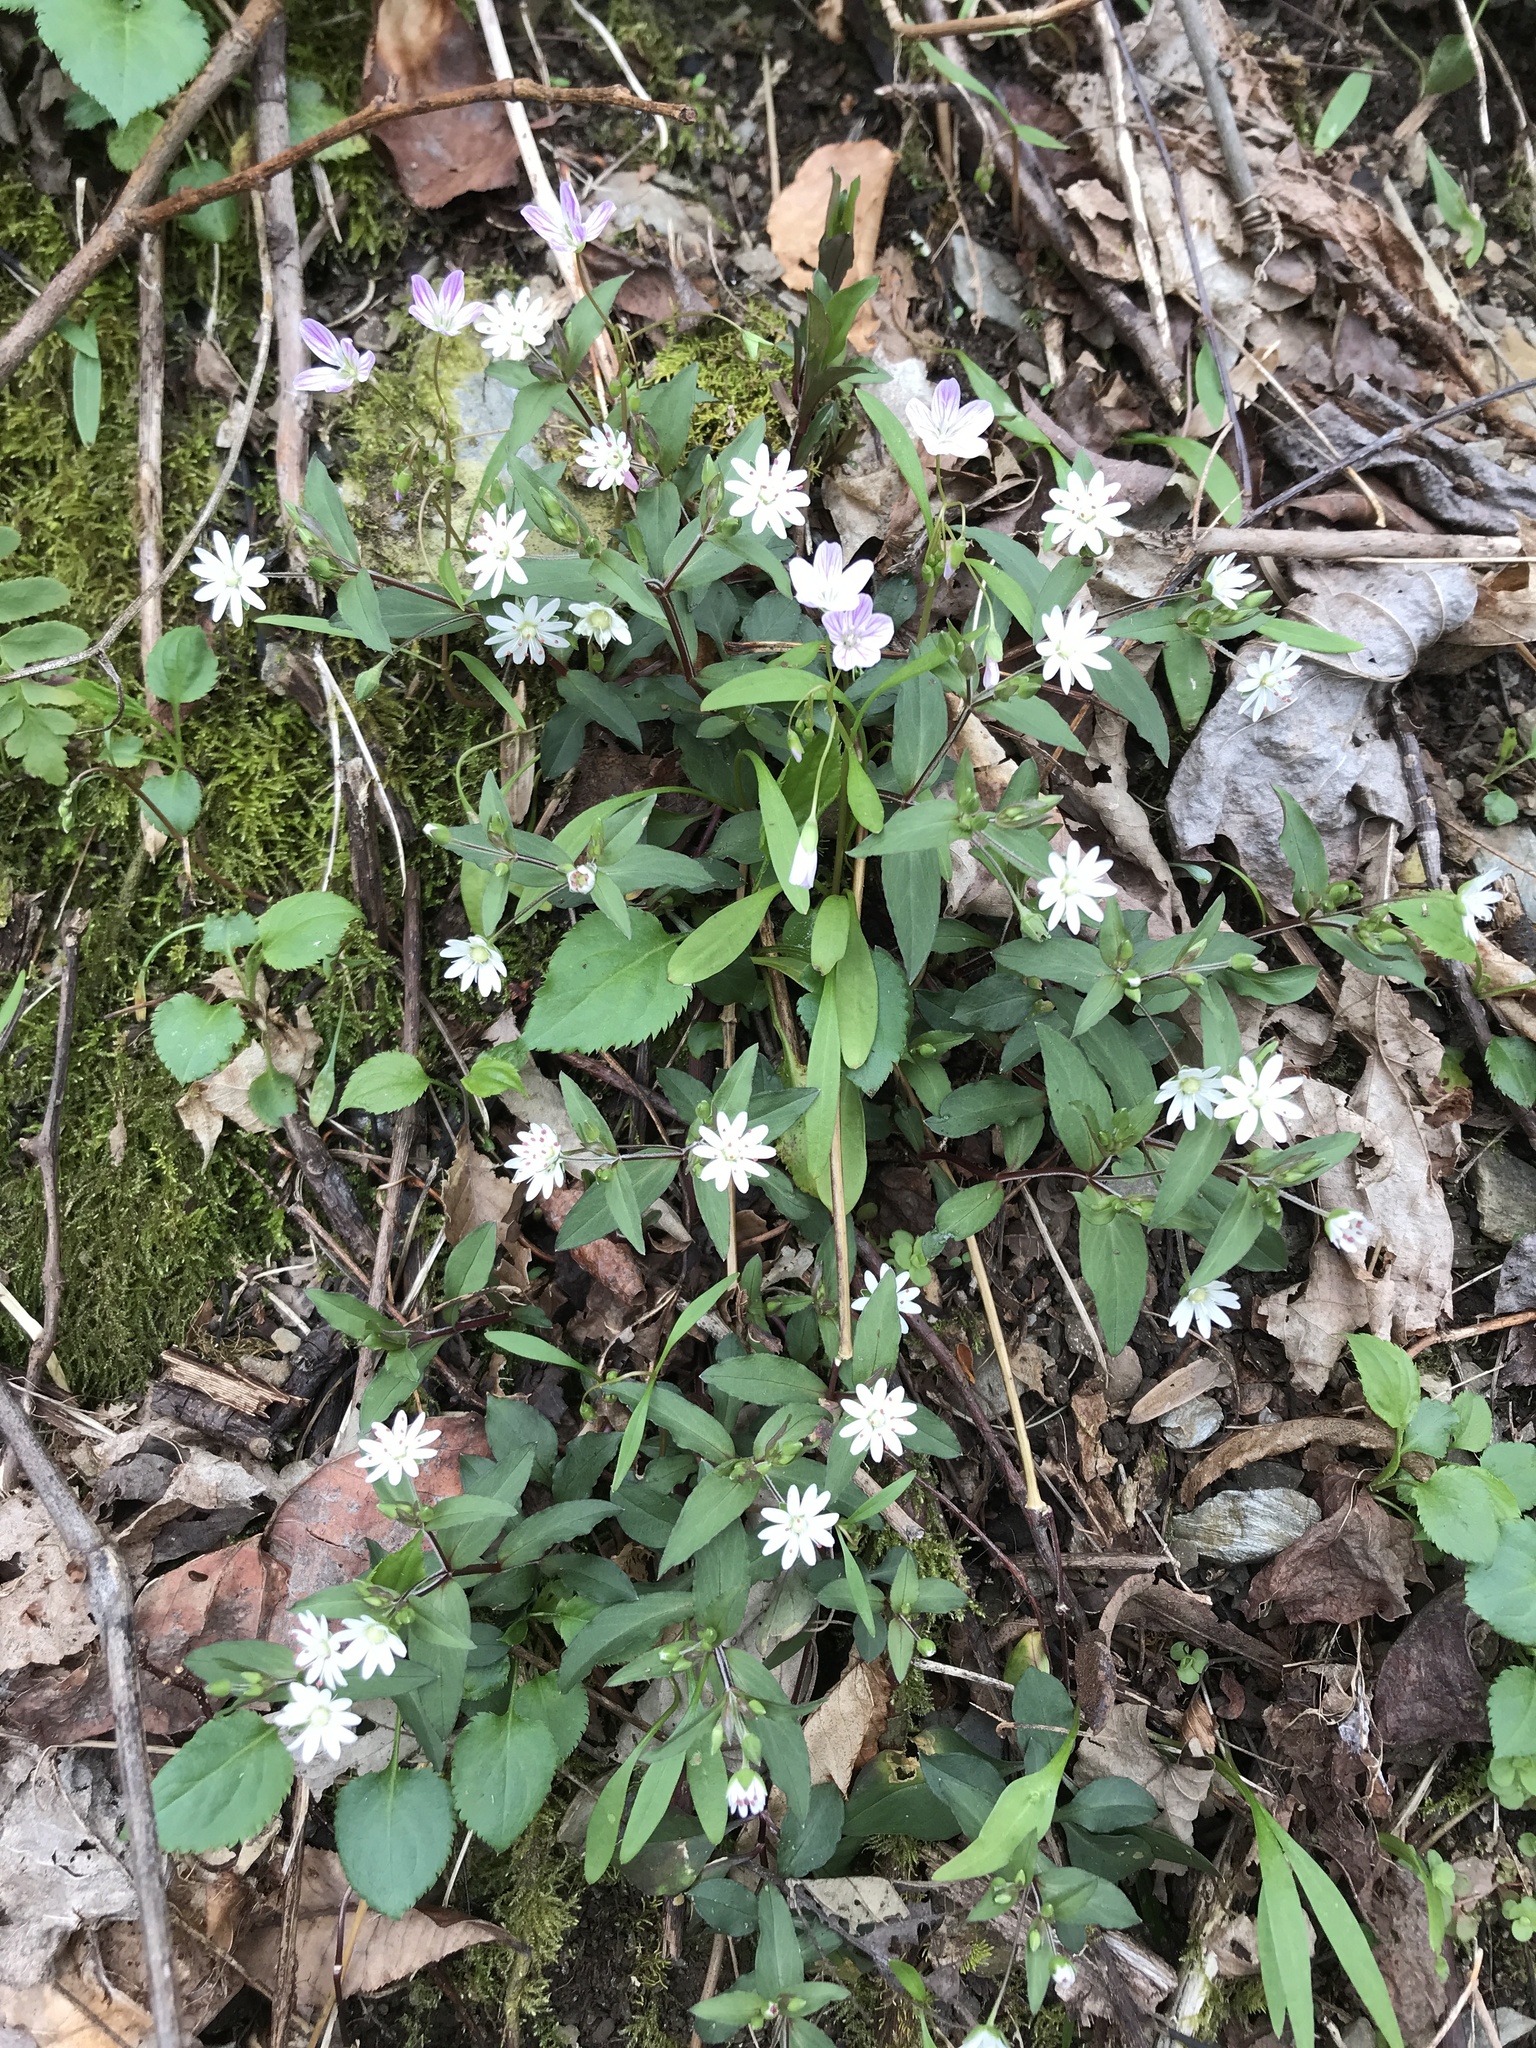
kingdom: Plantae
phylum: Tracheophyta
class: Magnoliopsida
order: Caryophyllales
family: Caryophyllaceae
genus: Stellaria
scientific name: Stellaria pubera
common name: Star chickweed
